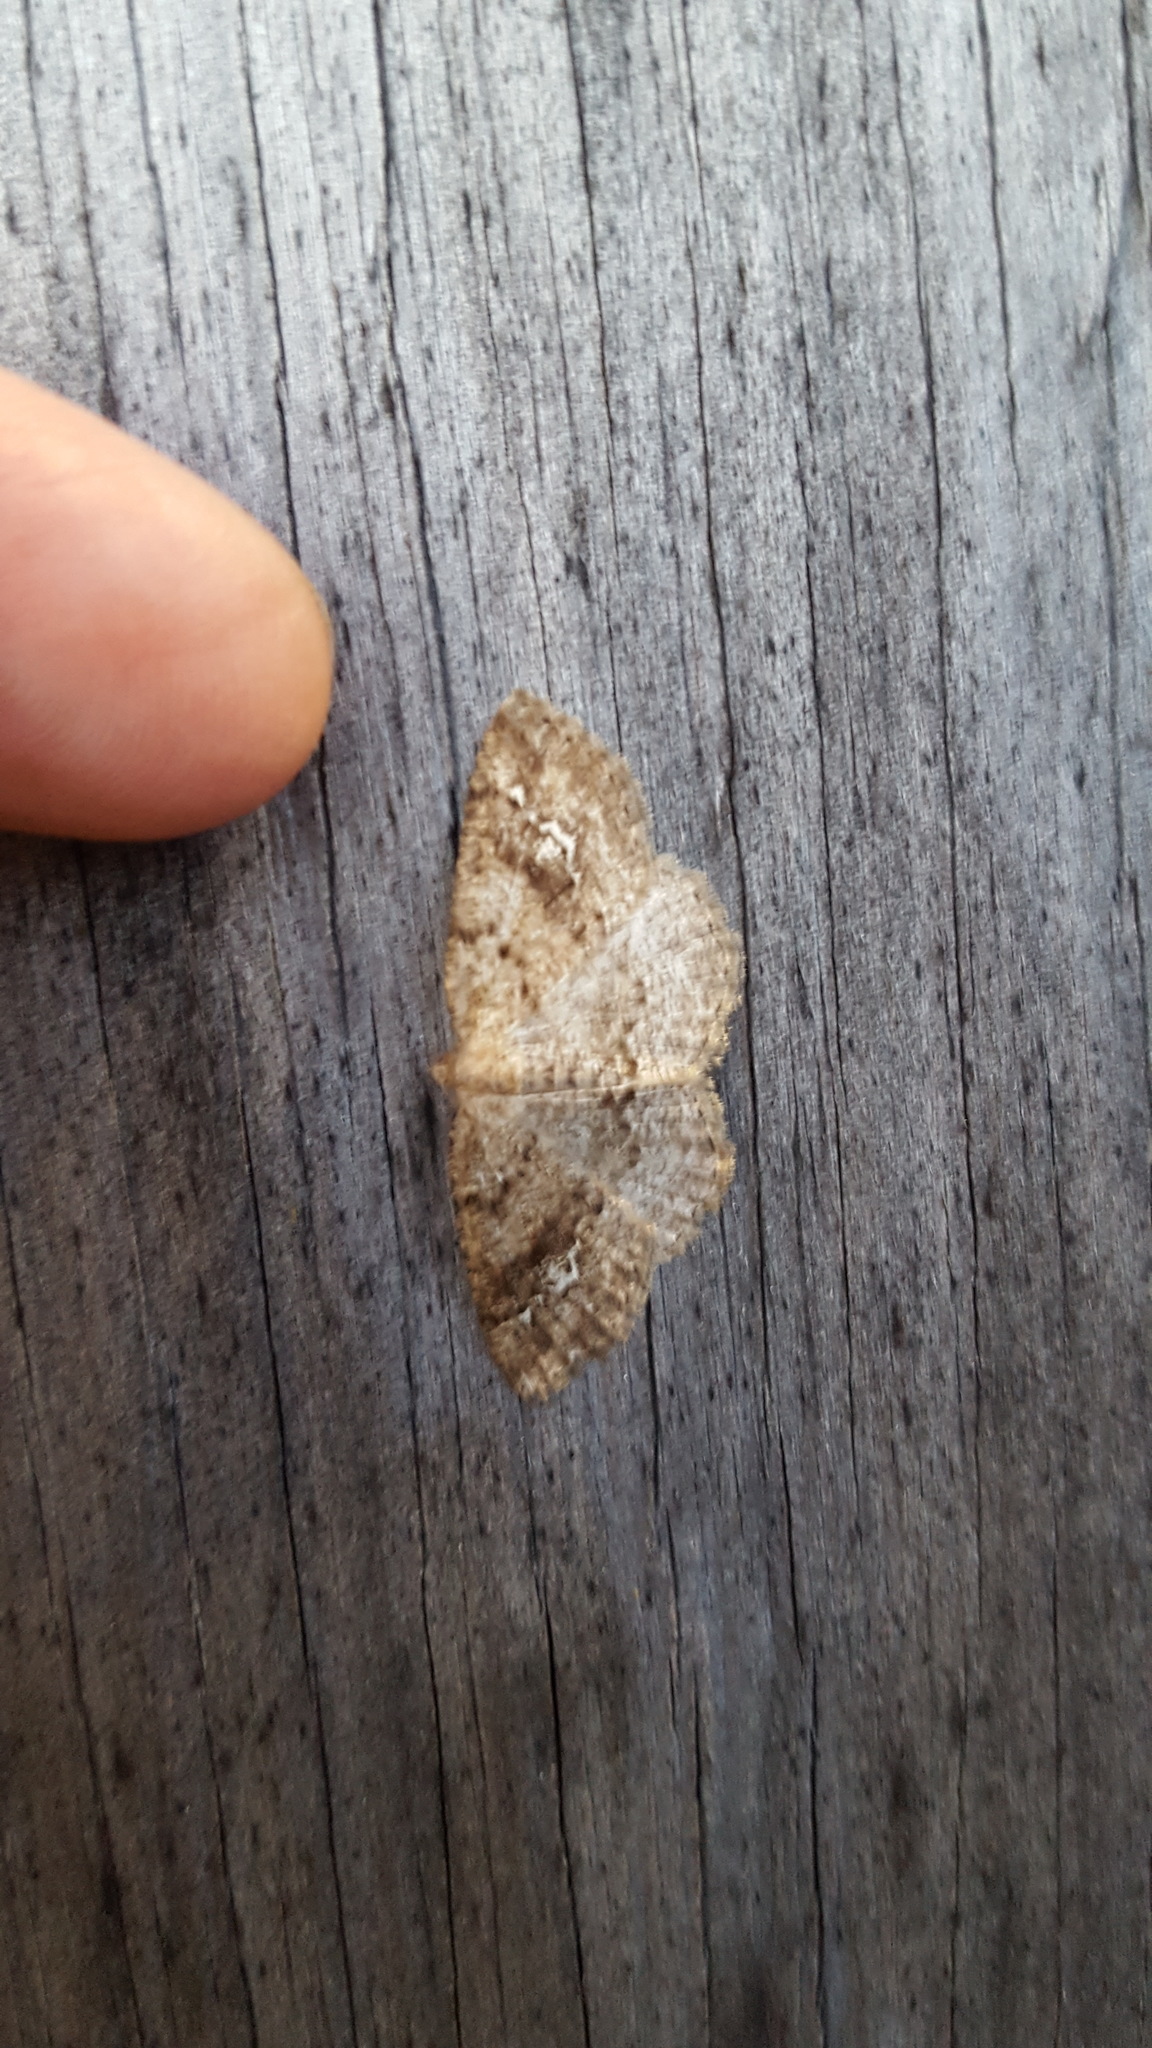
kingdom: Animalia
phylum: Arthropoda
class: Insecta
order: Lepidoptera
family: Geometridae
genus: Homochlodes
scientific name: Homochlodes fritillaria
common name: Pale homochlodes
